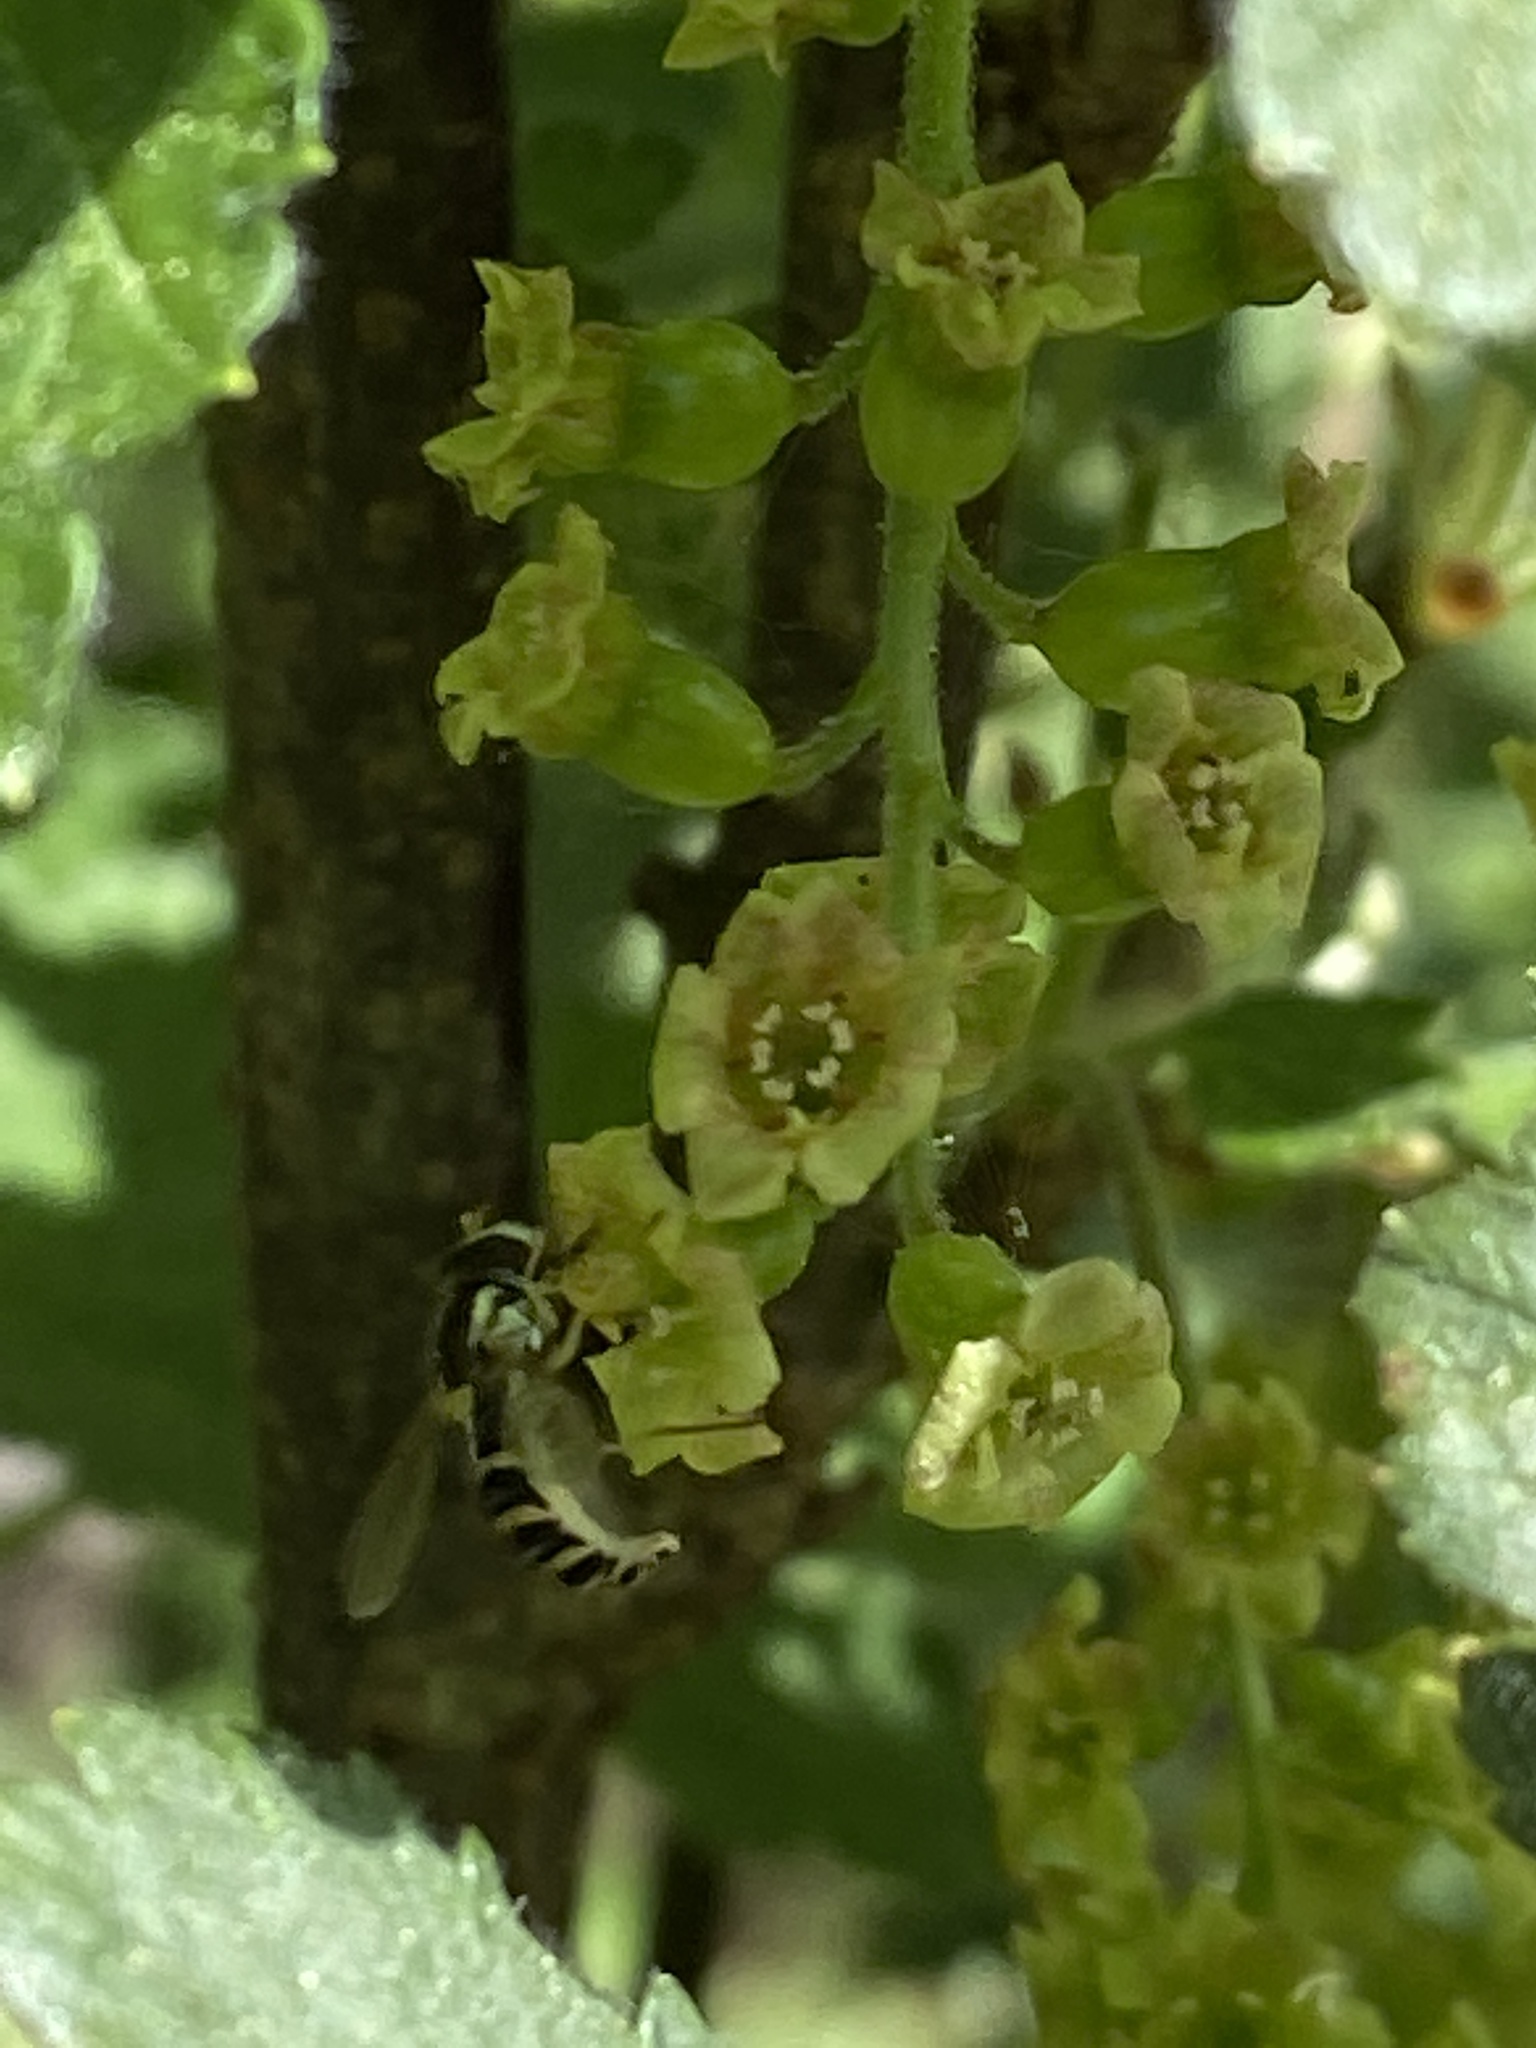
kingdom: Animalia
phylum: Arthropoda
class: Insecta
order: Diptera
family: Syrphidae
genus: Sphaerophoria
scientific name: Sphaerophoria
